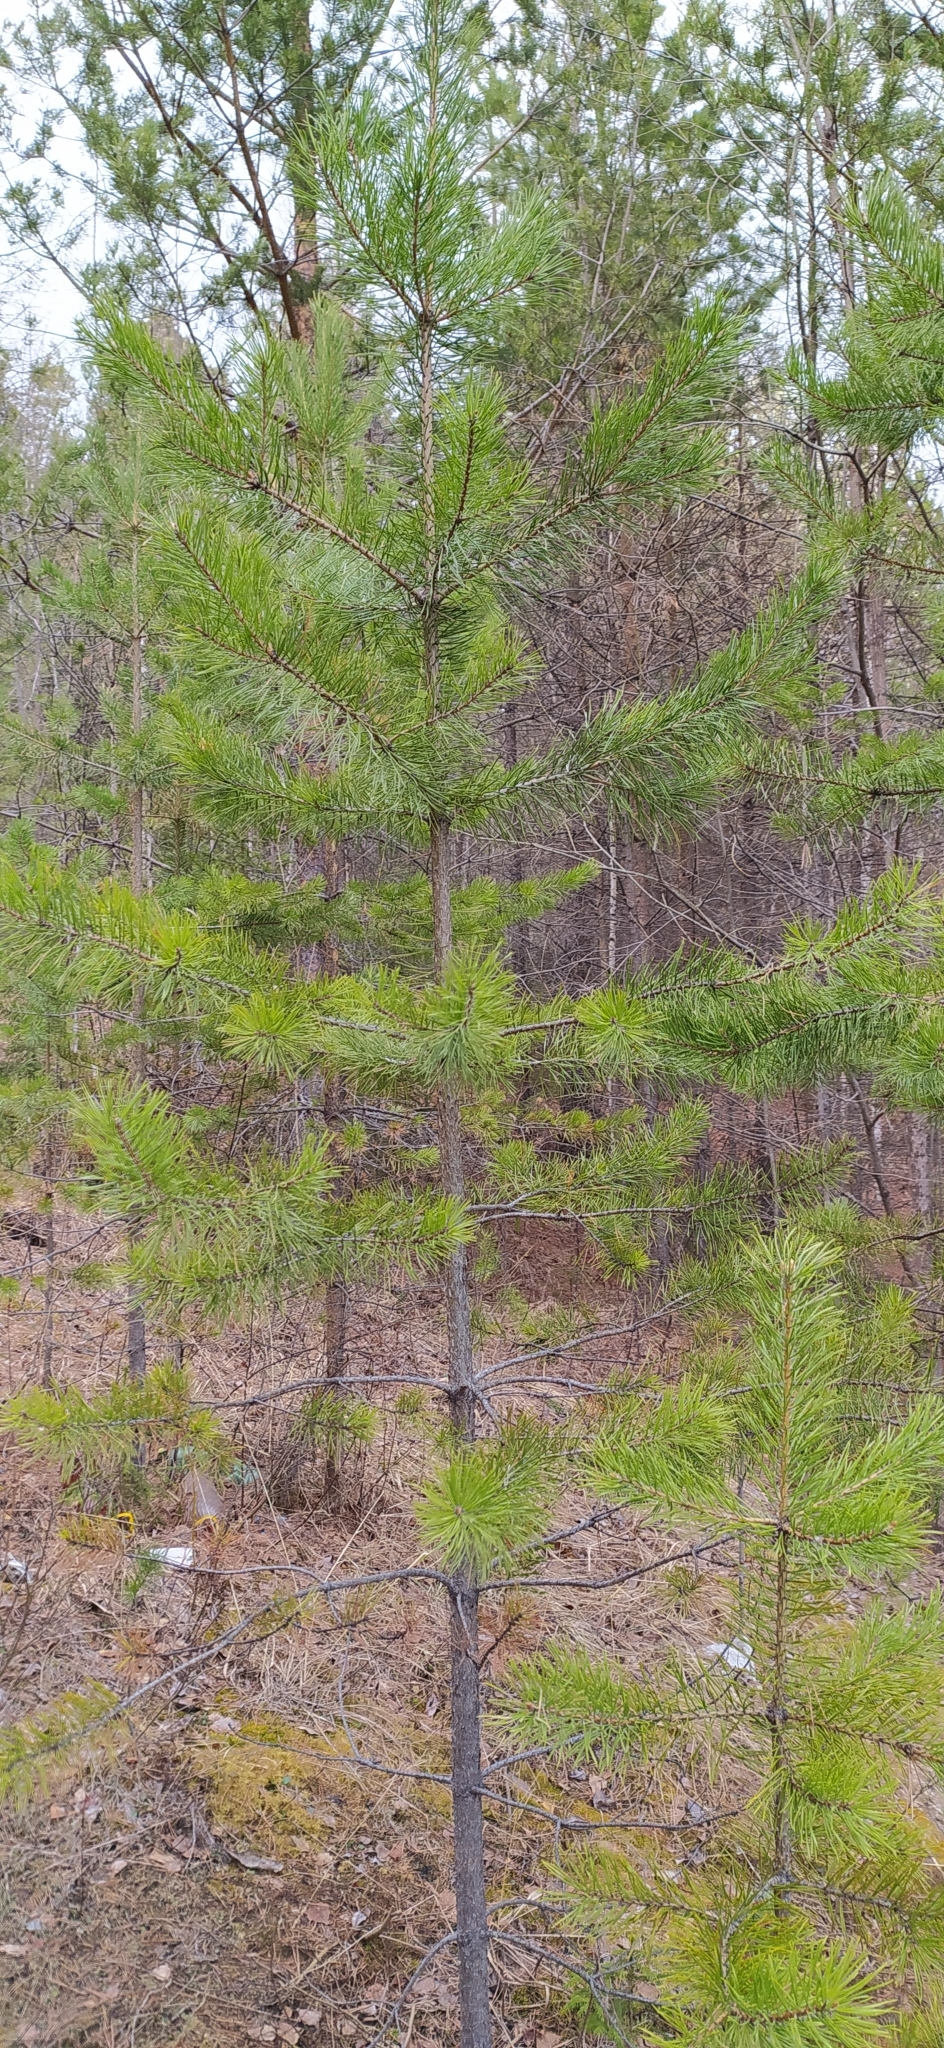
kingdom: Plantae
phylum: Tracheophyta
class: Pinopsida
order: Pinales
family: Pinaceae
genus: Pinus
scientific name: Pinus sylvestris
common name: Scots pine
